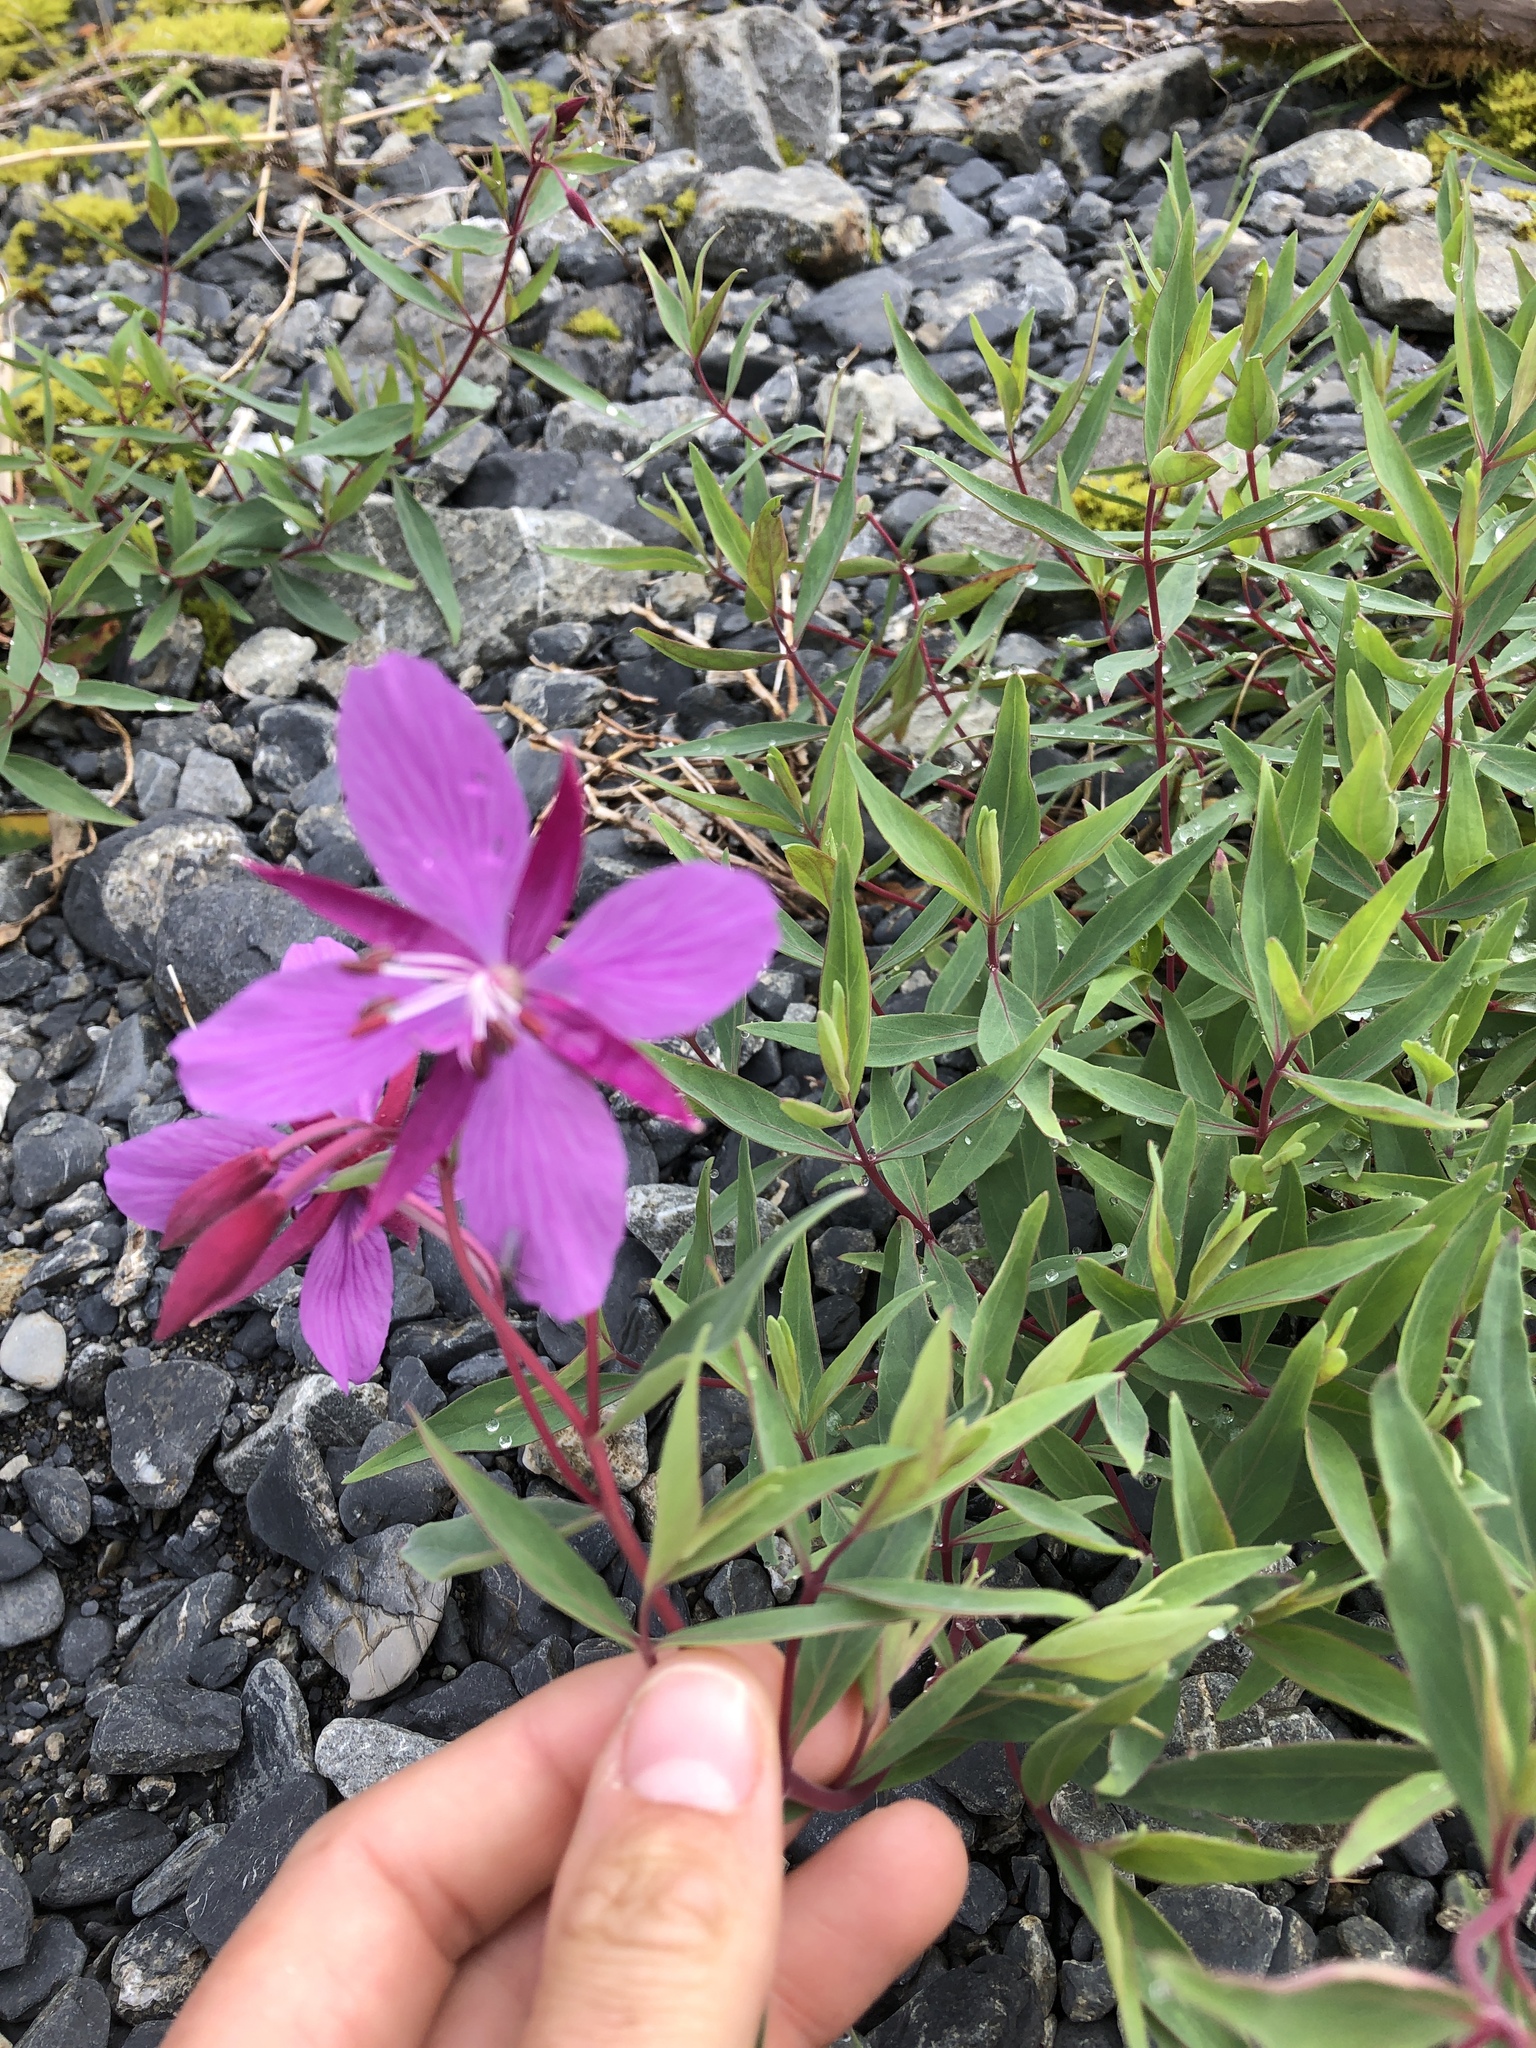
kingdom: Plantae
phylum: Tracheophyta
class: Magnoliopsida
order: Myrtales
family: Onagraceae
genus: Chamaenerion
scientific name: Chamaenerion latifolium
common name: Dwarf fireweed
